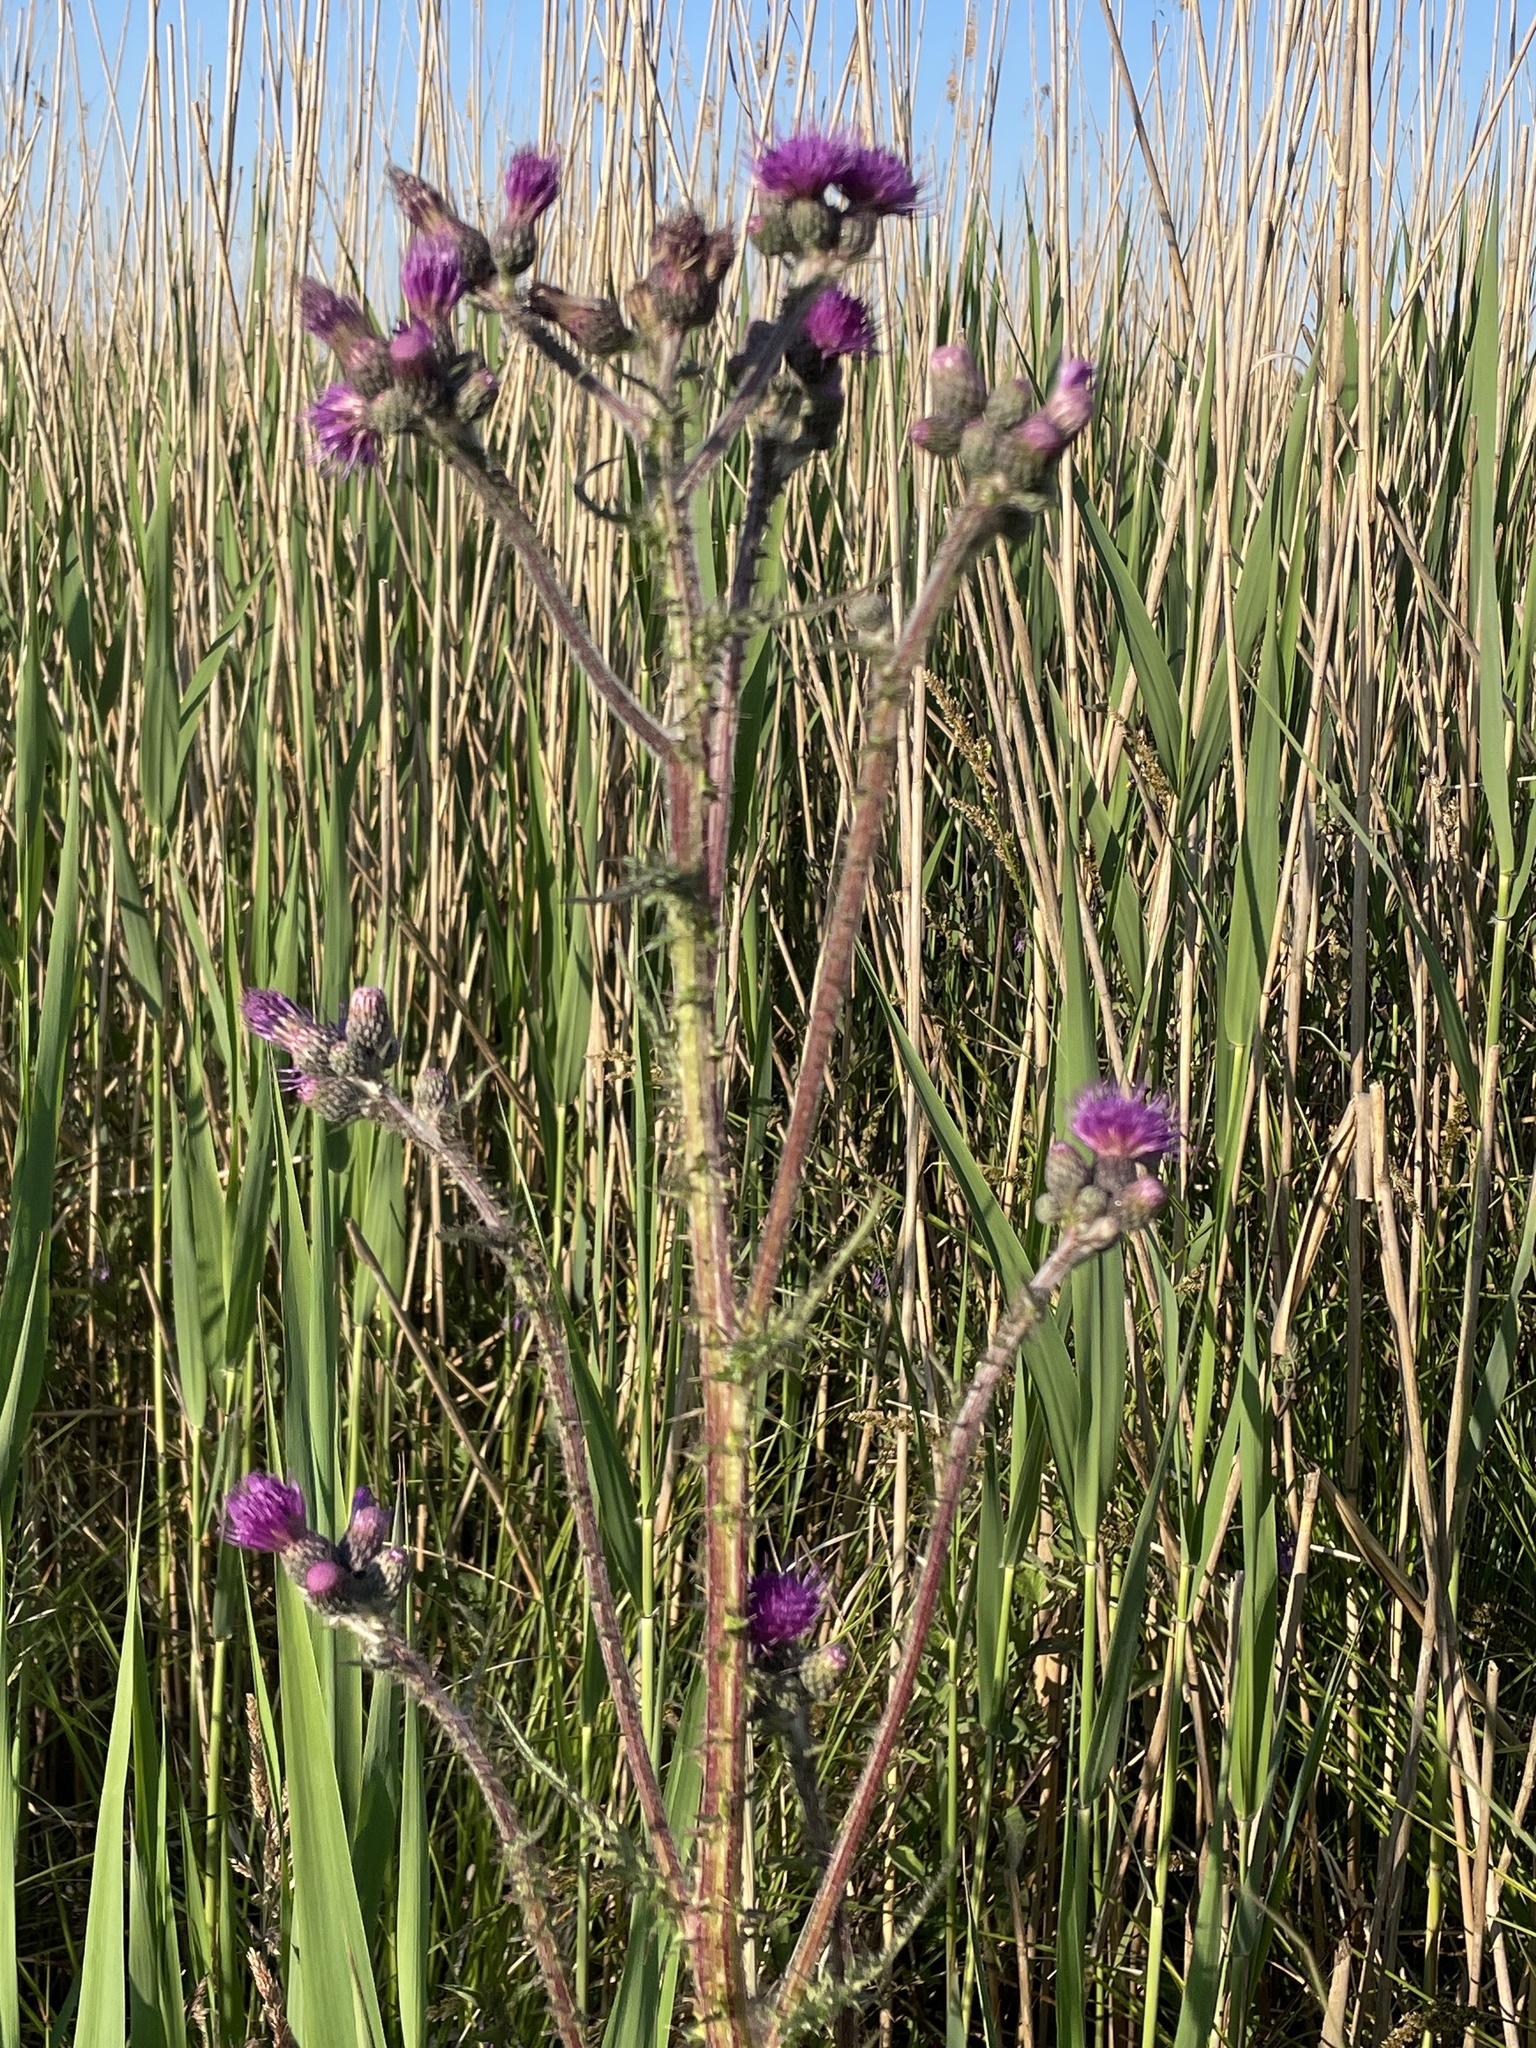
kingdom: Plantae
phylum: Tracheophyta
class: Magnoliopsida
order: Asterales
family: Asteraceae
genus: Cirsium
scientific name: Cirsium palustre
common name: Marsh thistle
